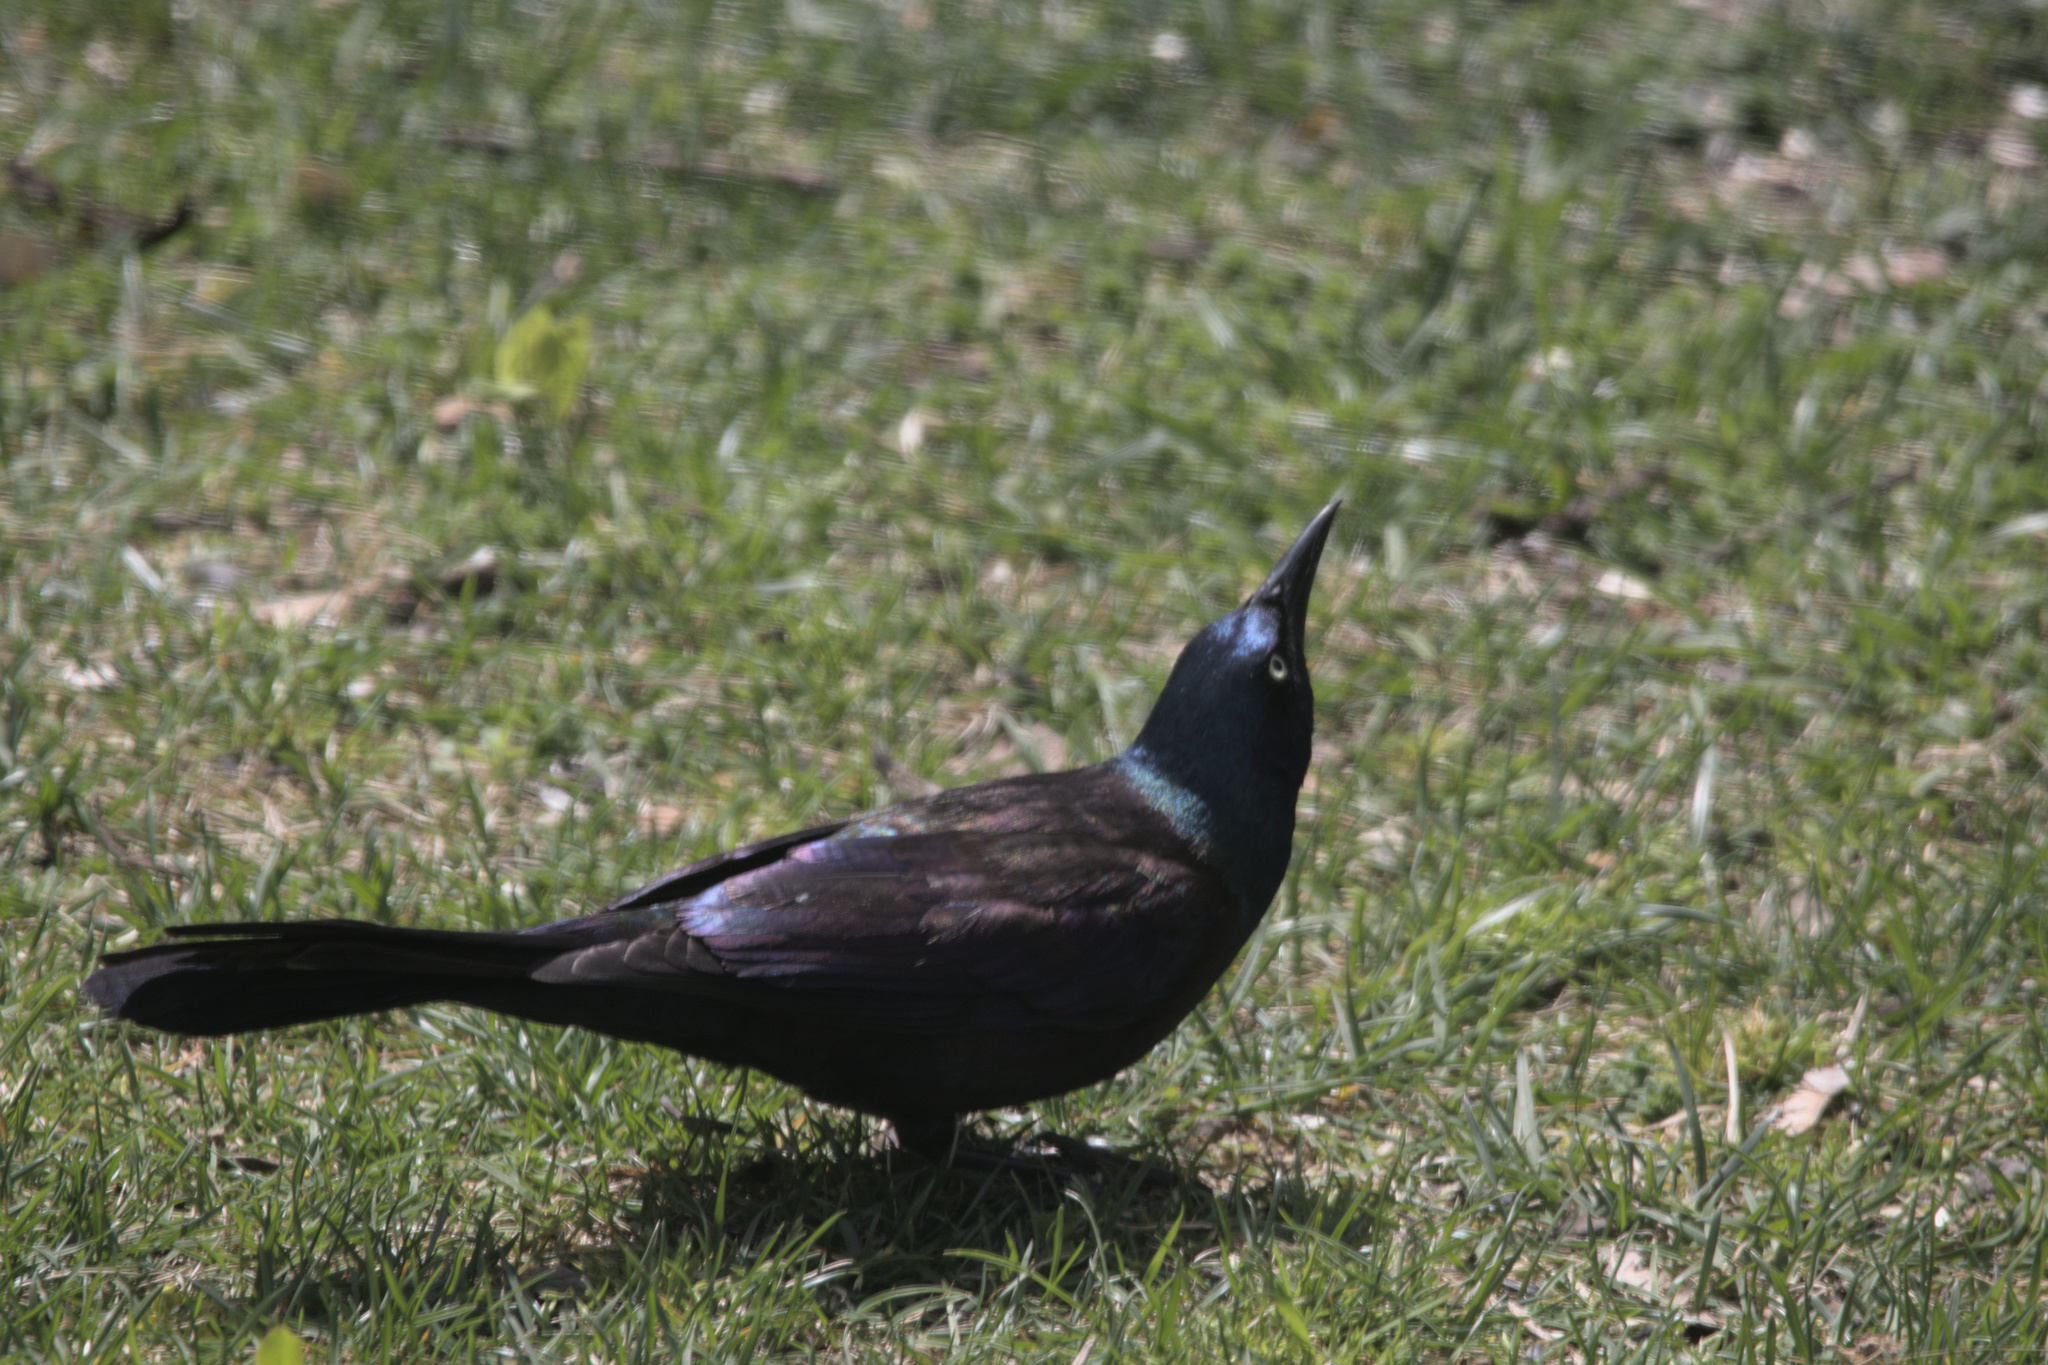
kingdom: Animalia
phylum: Chordata
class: Aves
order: Passeriformes
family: Icteridae
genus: Quiscalus
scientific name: Quiscalus quiscula
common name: Common grackle
